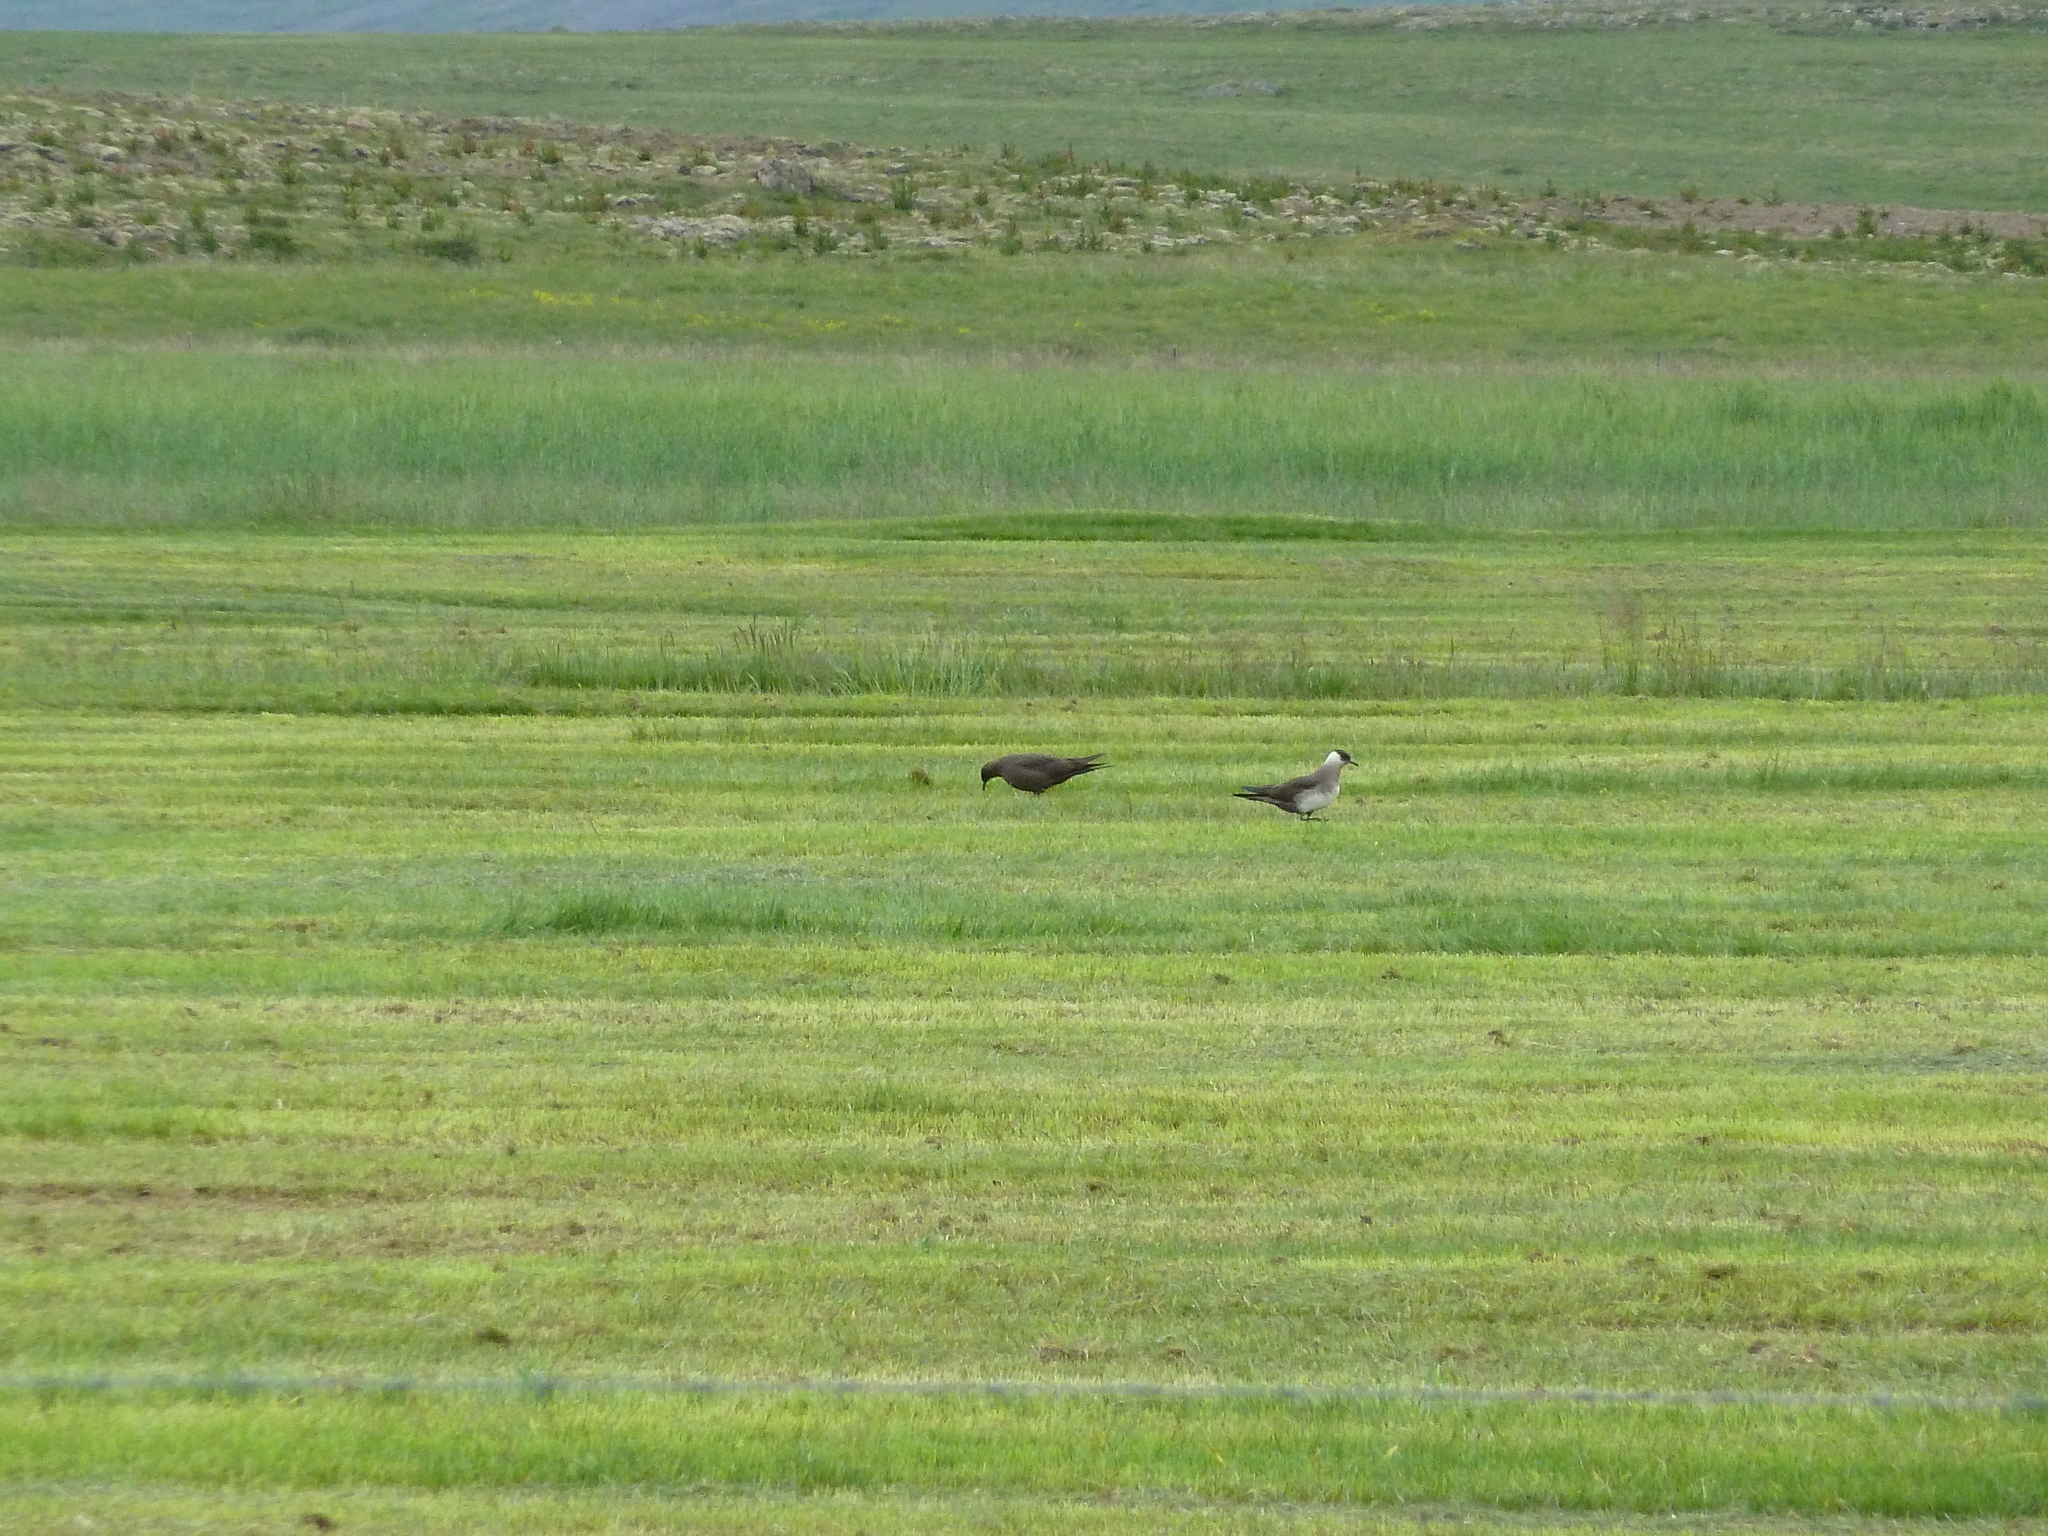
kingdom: Animalia
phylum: Chordata
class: Aves
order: Charadriiformes
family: Stercorariidae
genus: Stercorarius
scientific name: Stercorarius parasiticus
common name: Parasitic jaeger
